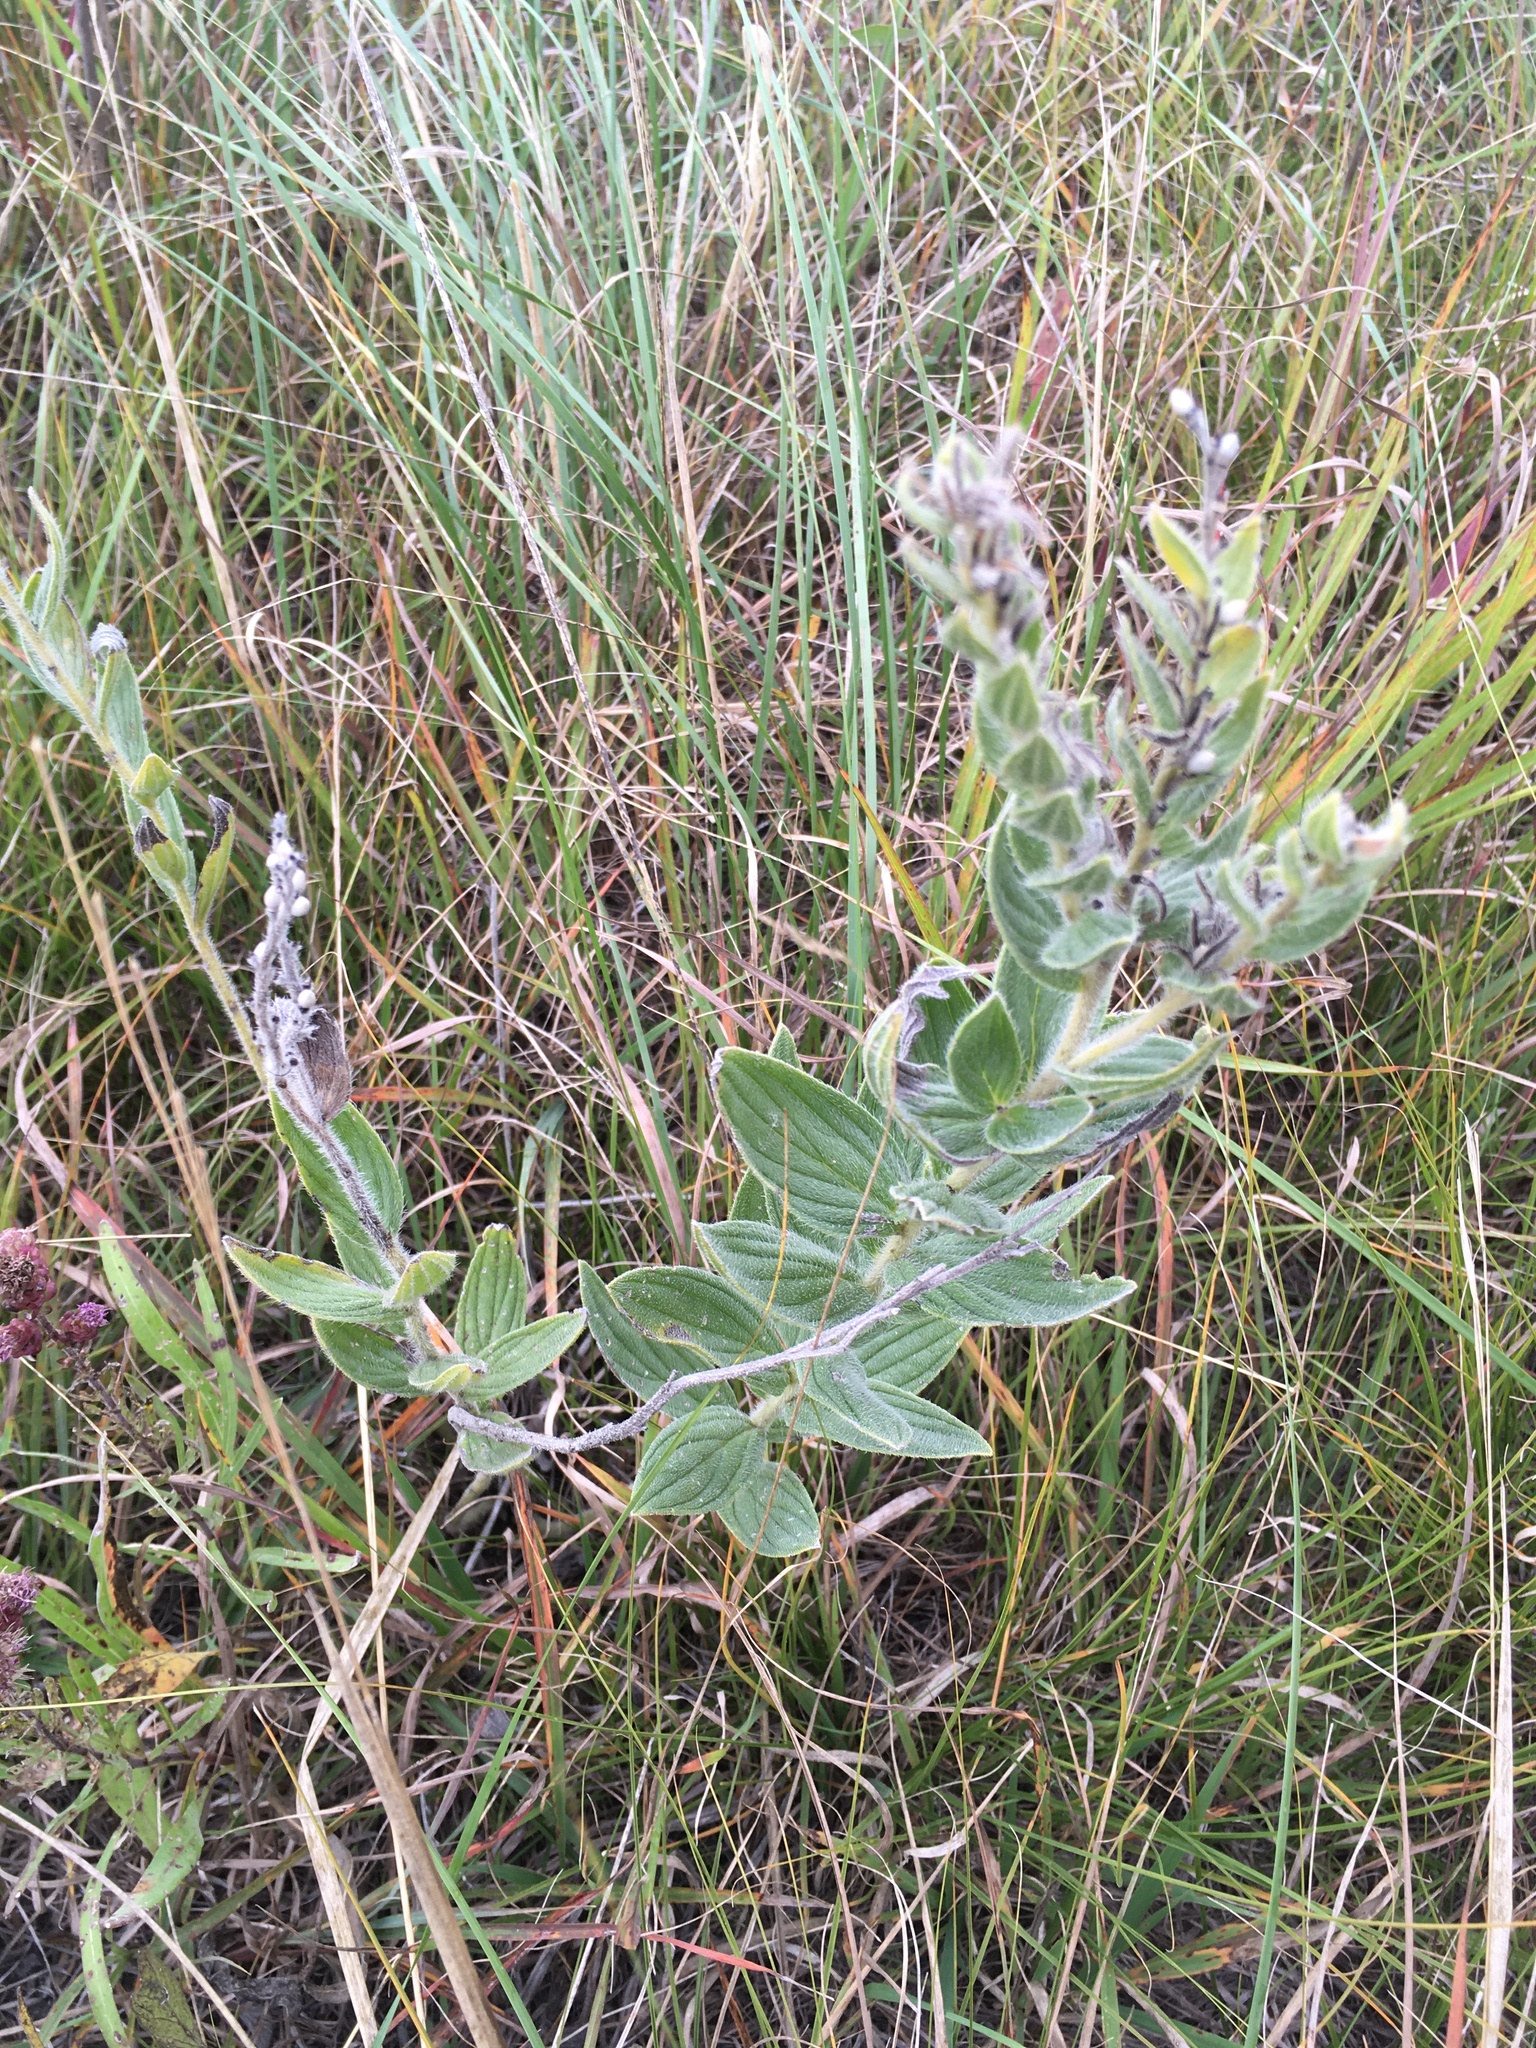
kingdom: Plantae
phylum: Tracheophyta
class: Magnoliopsida
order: Boraginales
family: Boraginaceae
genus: Lithospermum
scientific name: Lithospermum occidentale
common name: Western false gromwell
